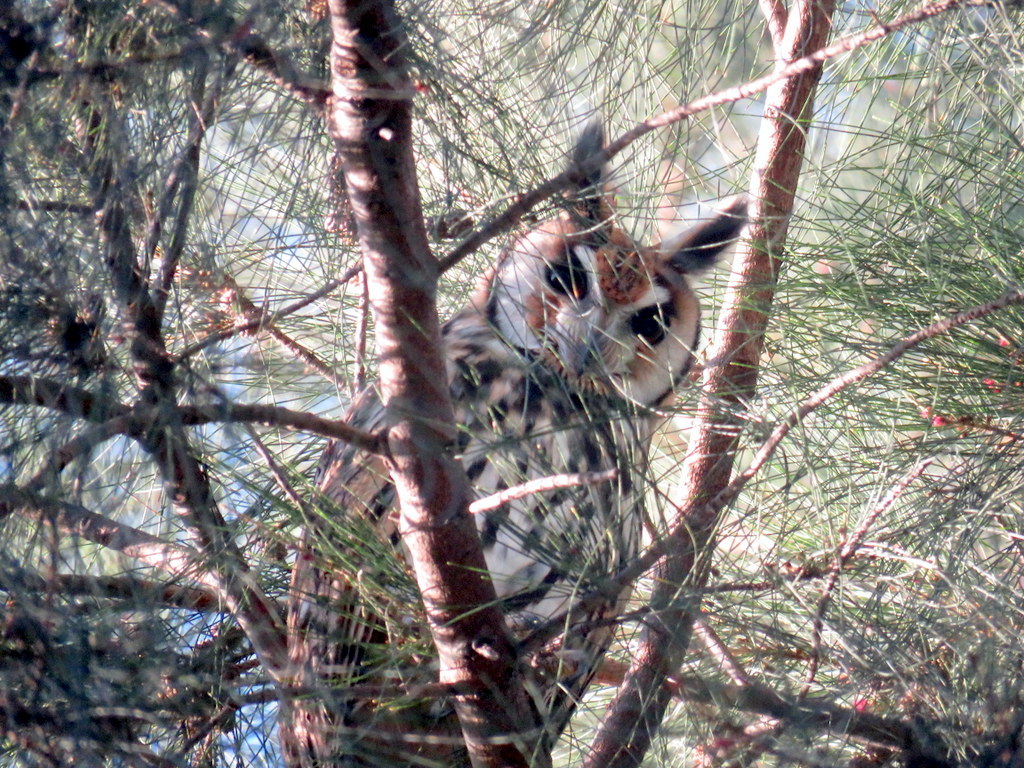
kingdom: Animalia
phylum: Chordata
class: Aves
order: Strigiformes
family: Strigidae
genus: Pseudoscops
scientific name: Pseudoscops clamator
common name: Striped owl
